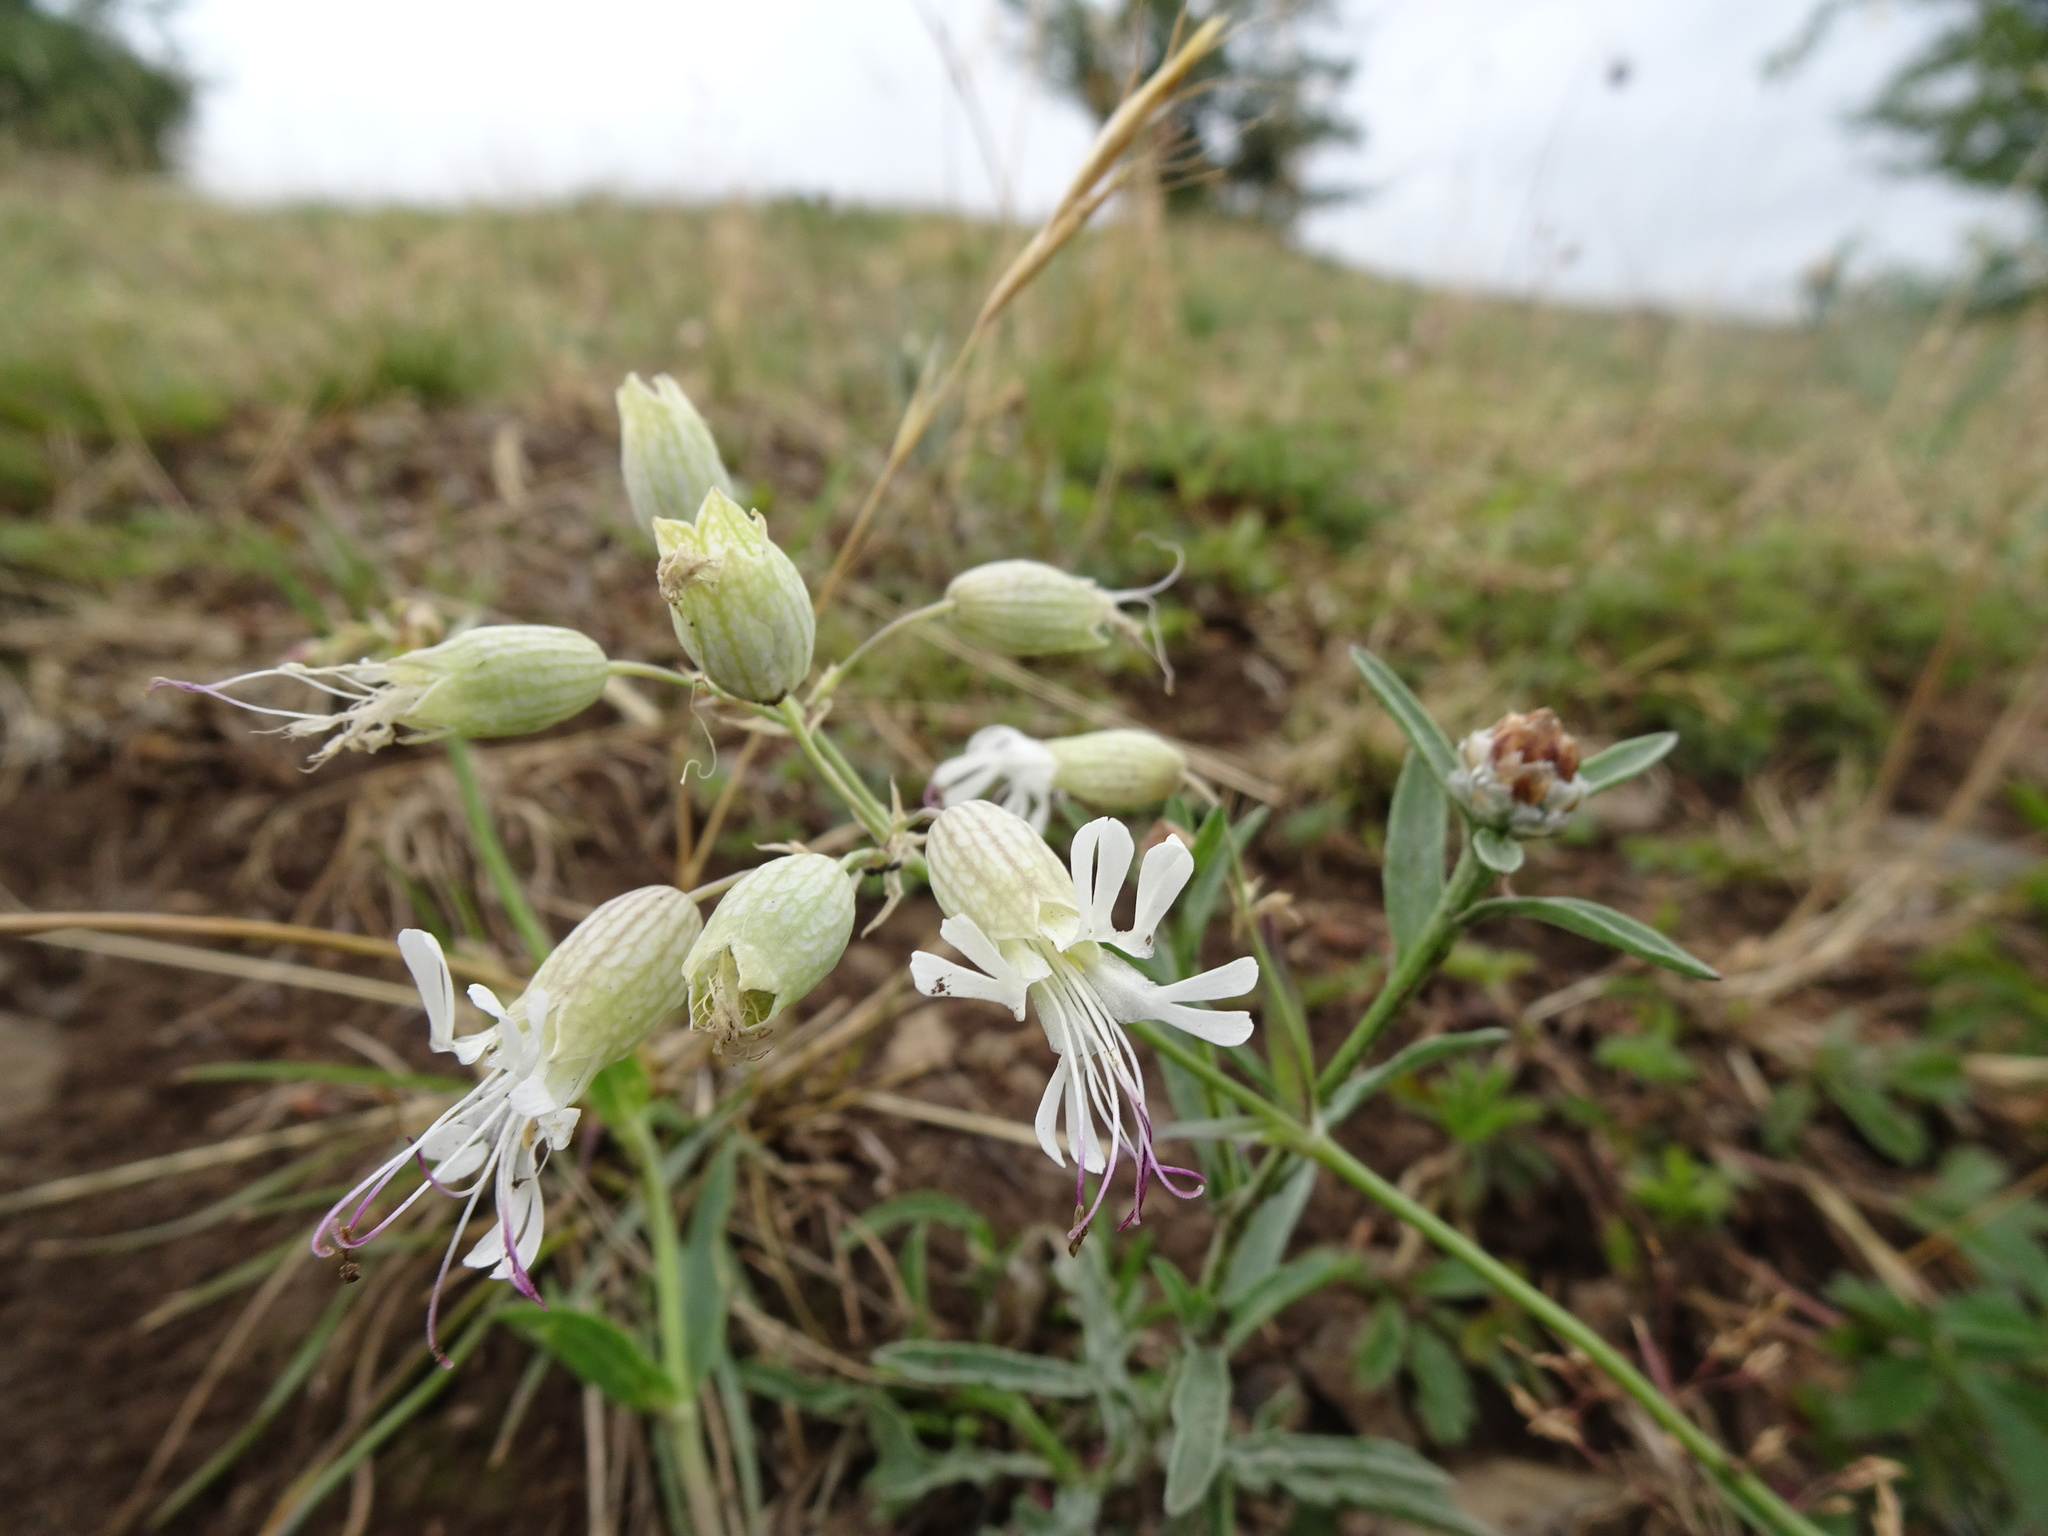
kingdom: Plantae
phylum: Tracheophyta
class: Magnoliopsida
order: Caryophyllales
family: Caryophyllaceae
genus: Silene
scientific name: Silene vulgaris
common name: Bladder campion
